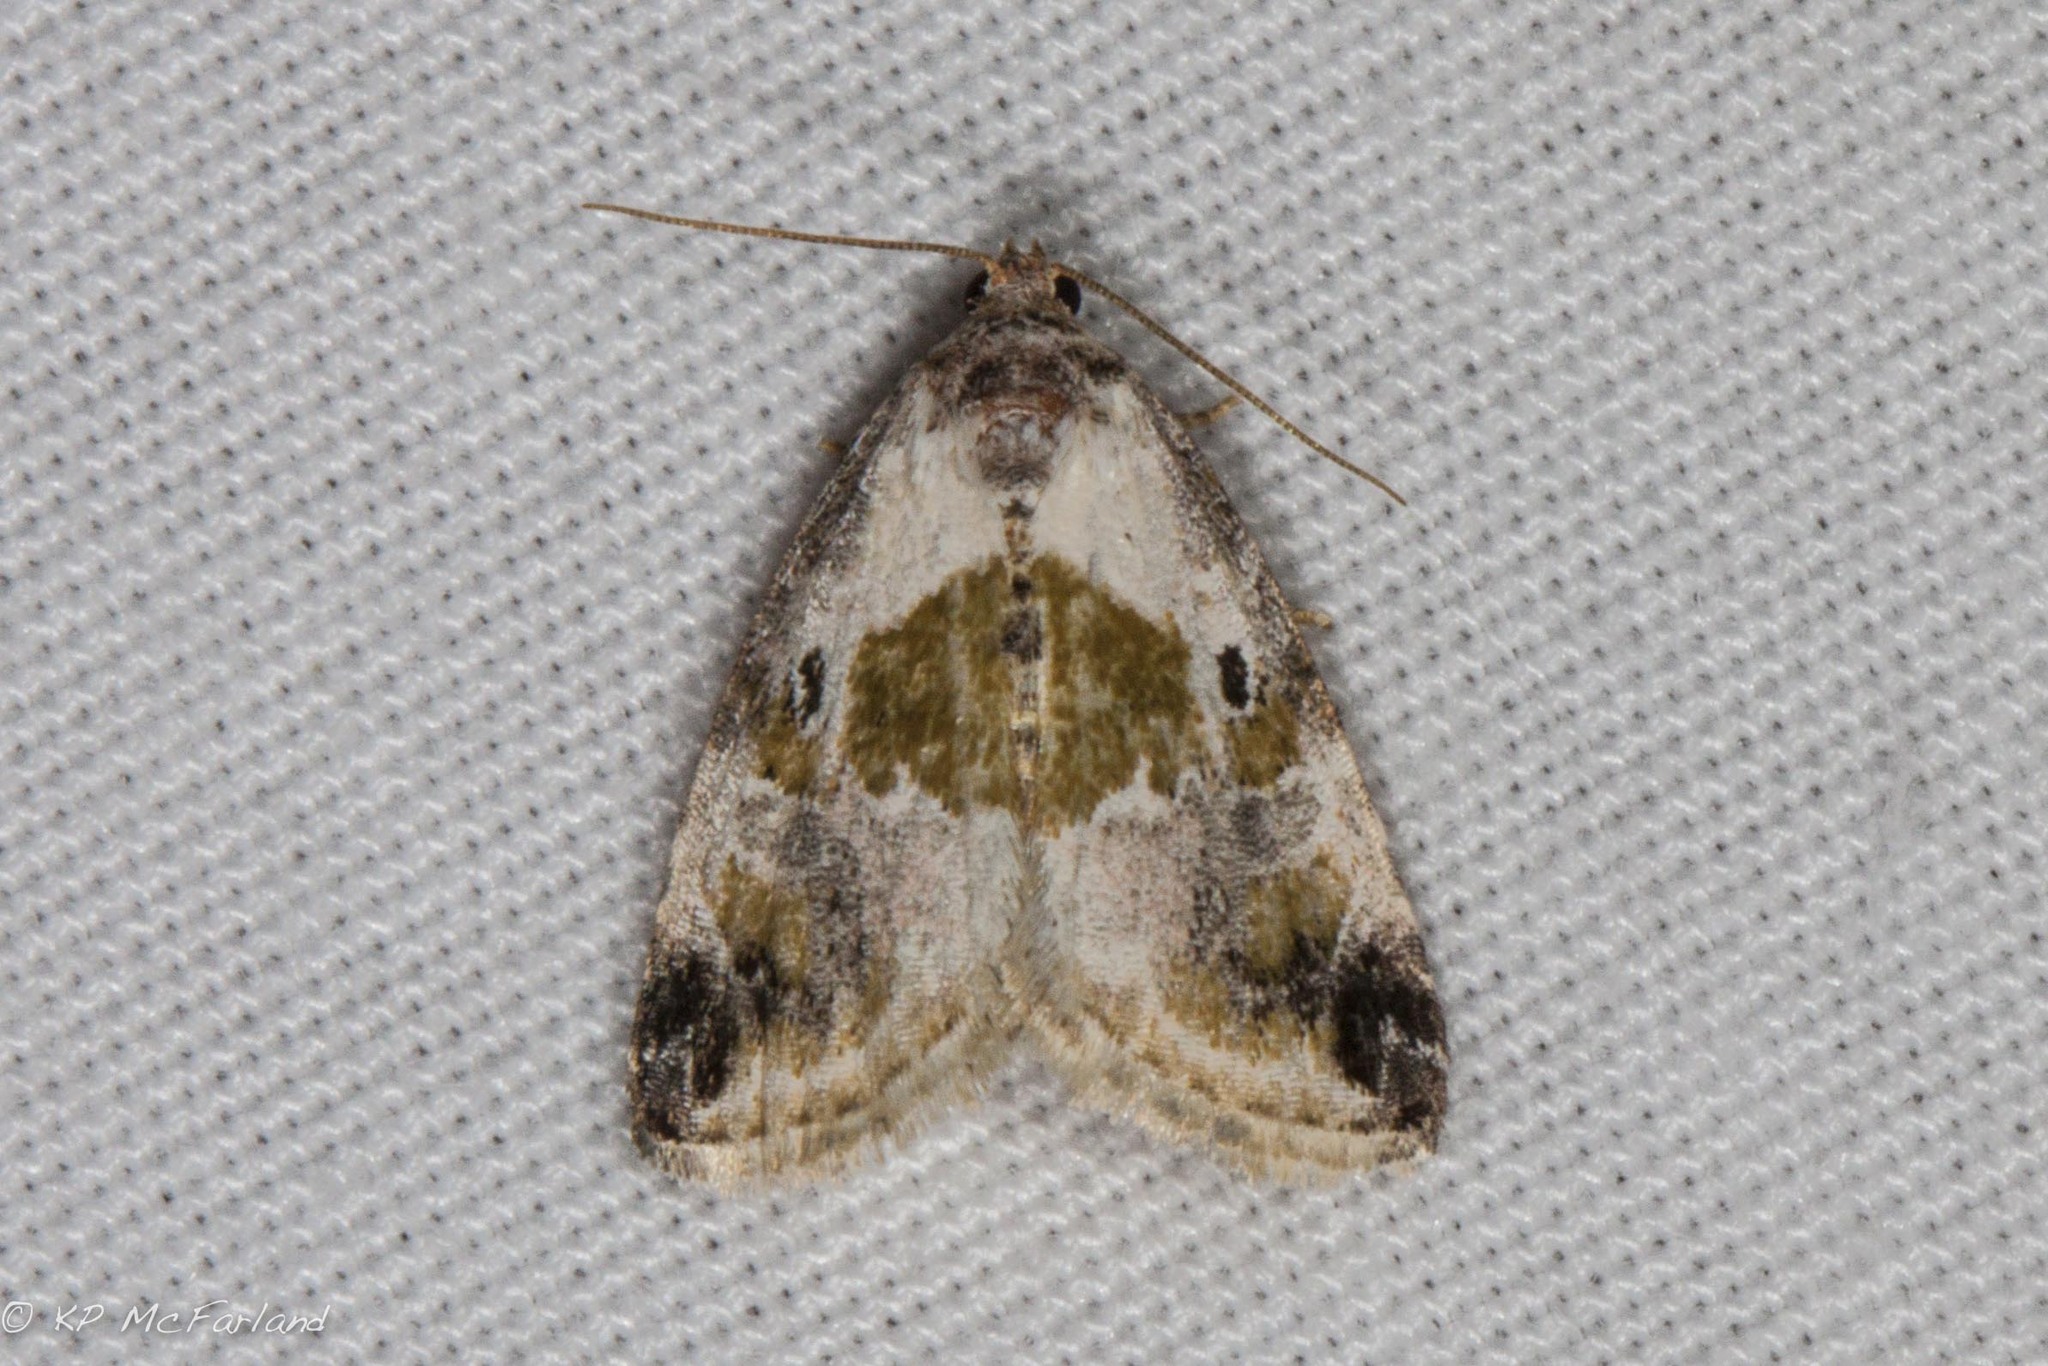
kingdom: Animalia
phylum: Arthropoda
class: Insecta
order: Lepidoptera
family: Noctuidae
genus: Maliattha
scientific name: Maliattha synochitis
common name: Black-dotted glyph
